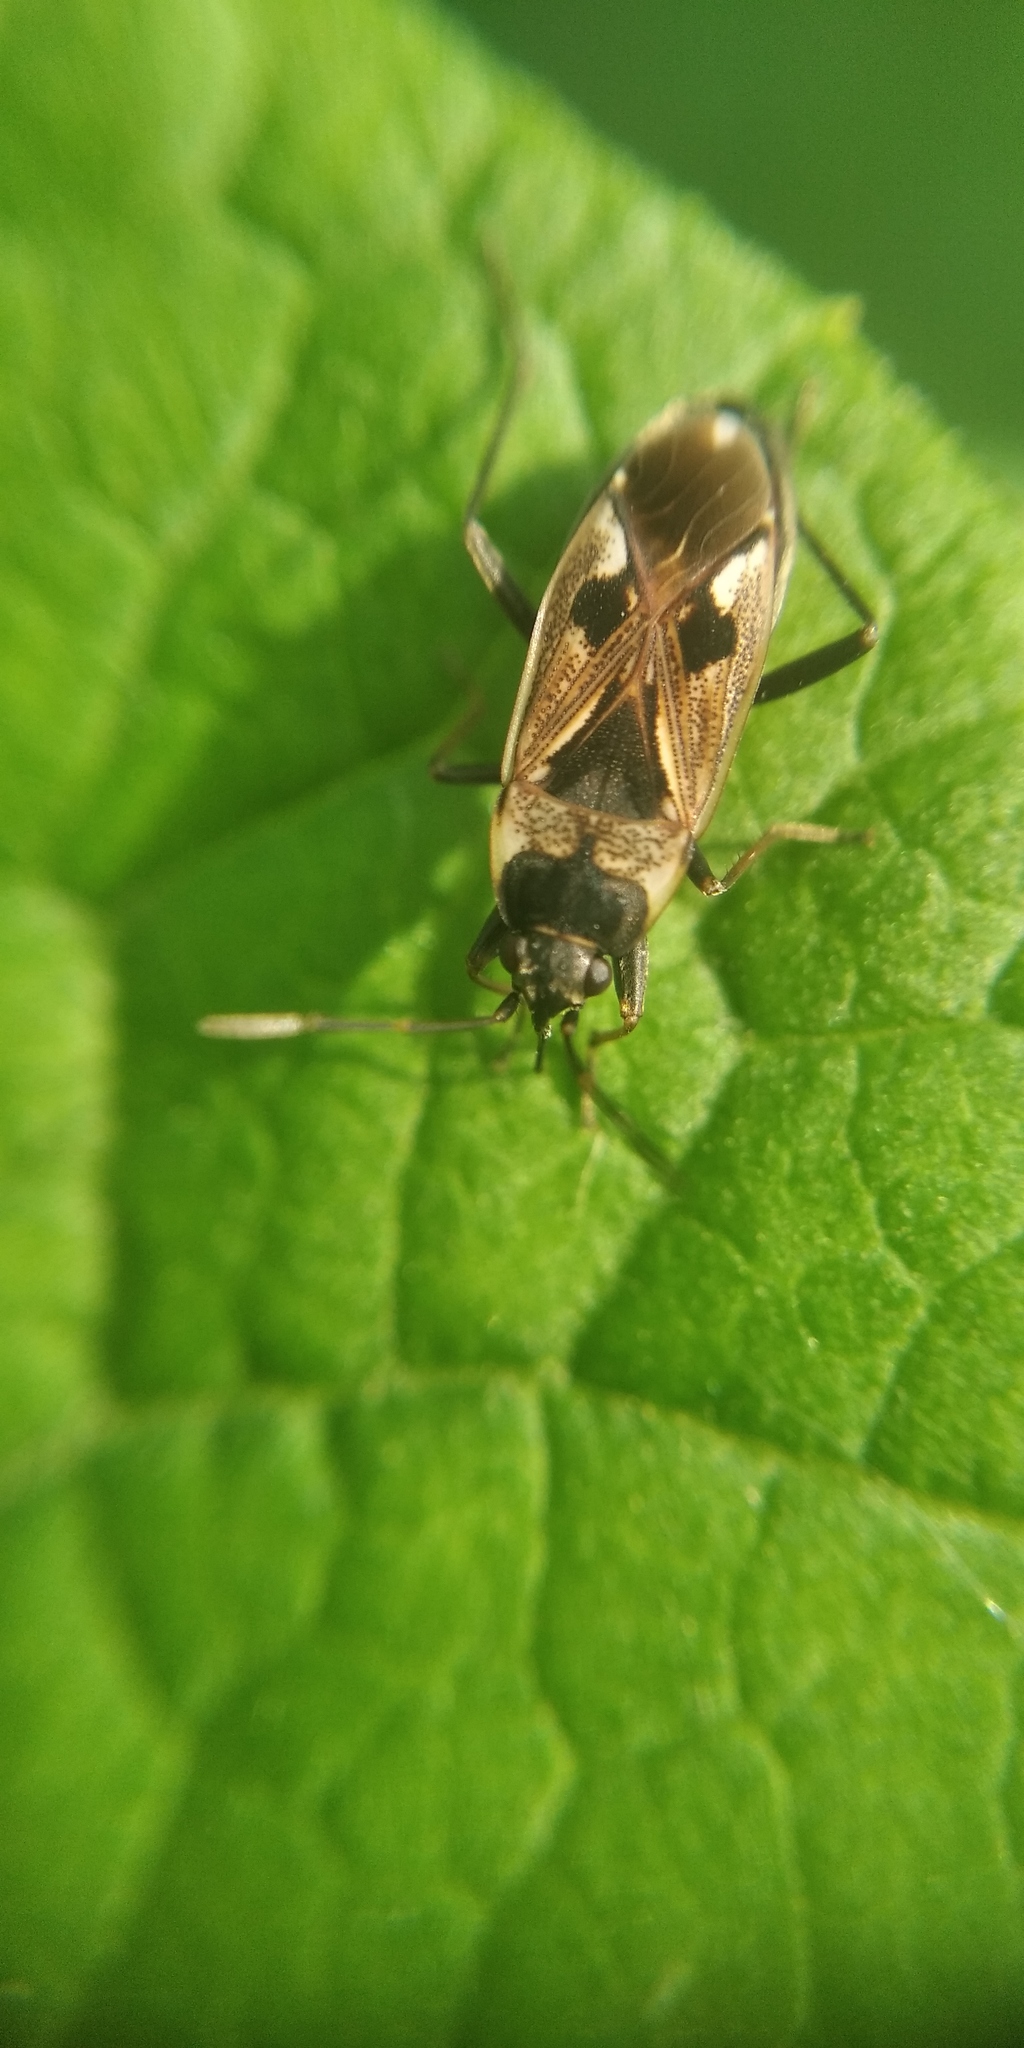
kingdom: Animalia
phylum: Arthropoda
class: Insecta
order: Hemiptera
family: Rhyparochromidae
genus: Rhyparochromus
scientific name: Rhyparochromus vulgaris
